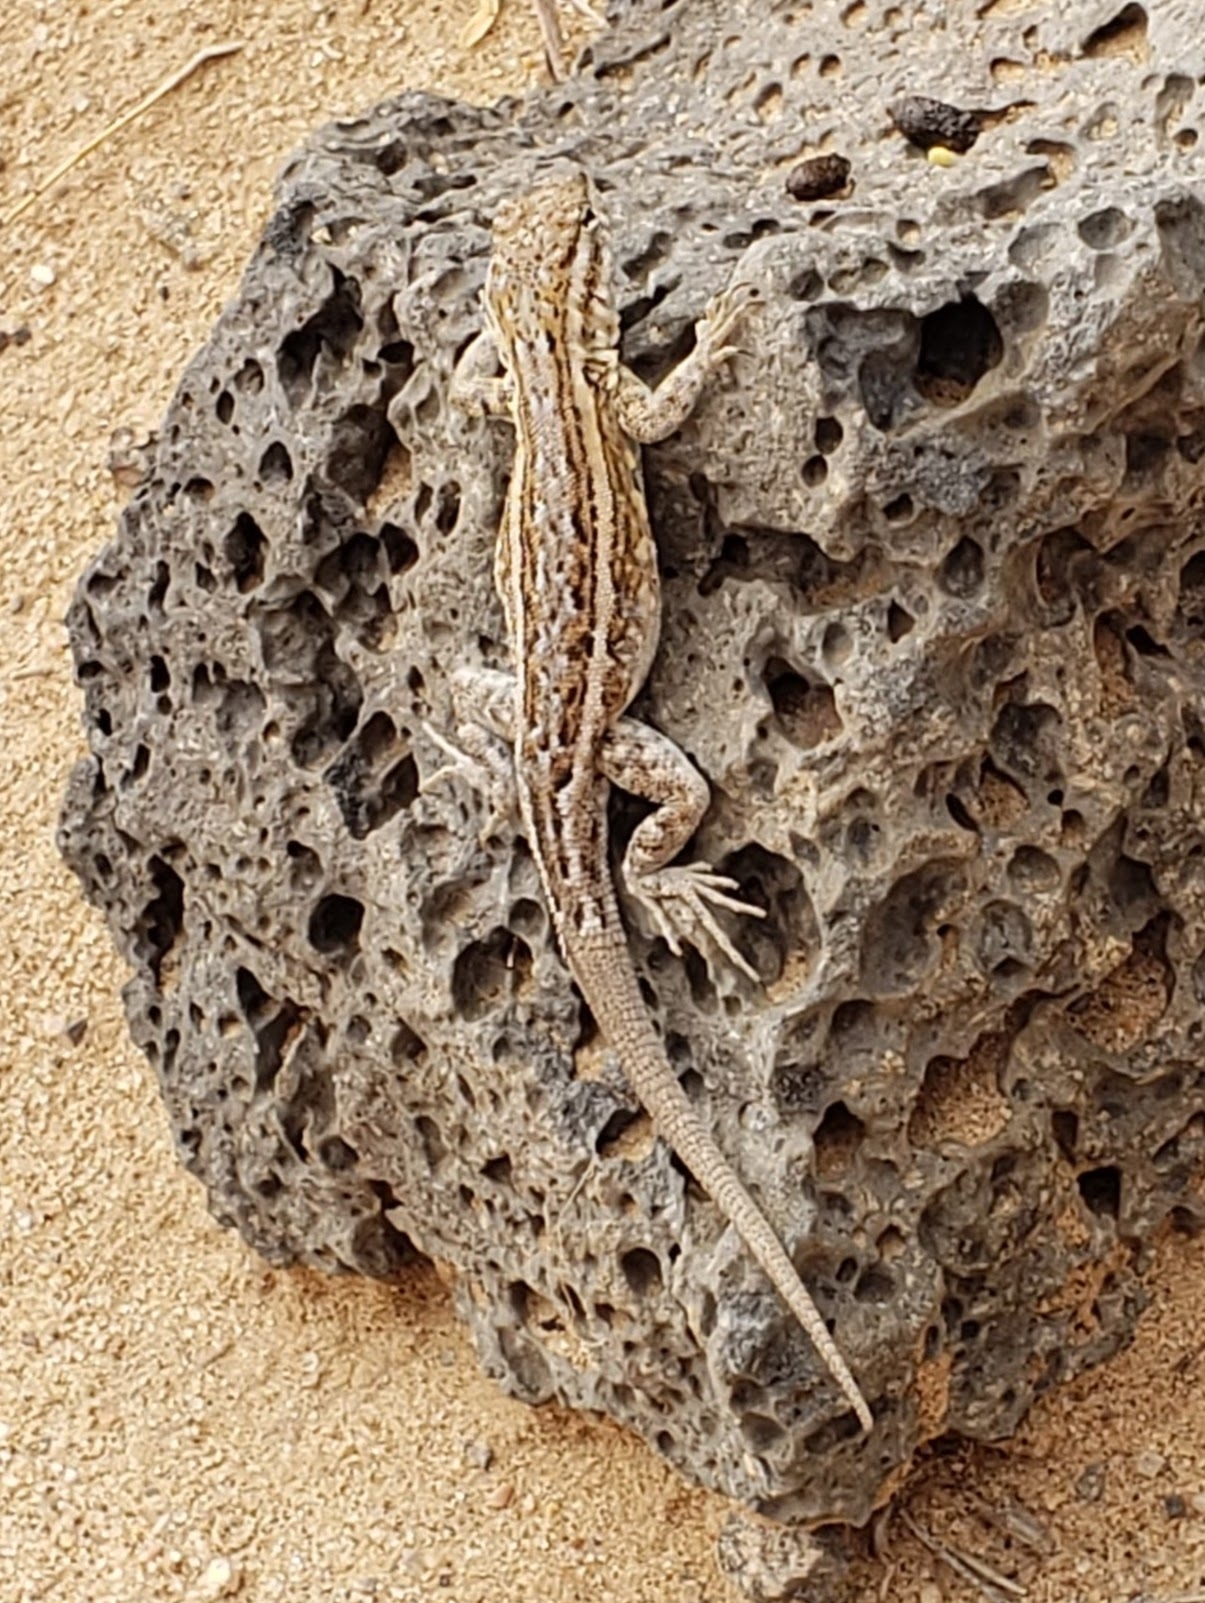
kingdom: Animalia
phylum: Chordata
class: Squamata
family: Phrynosomatidae
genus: Uta
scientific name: Uta stansburiana
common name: Side-blotched lizard
